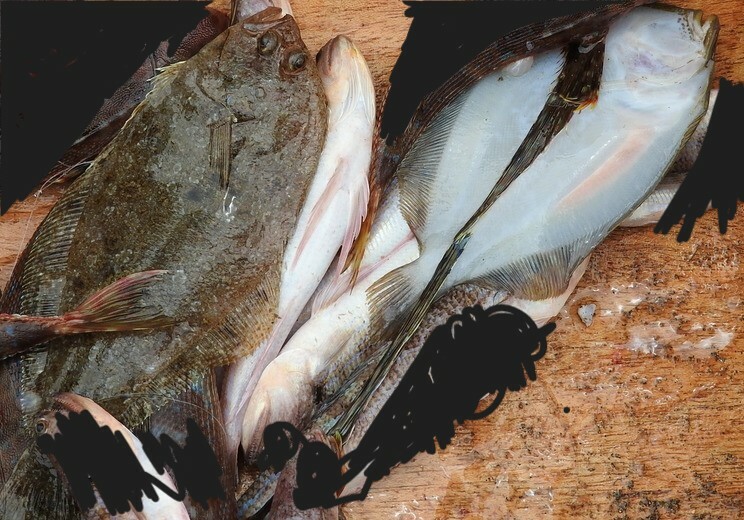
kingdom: Animalia
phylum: Chordata
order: Pleuronectiformes
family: Paralichthyidae
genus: Syacium
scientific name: Syacium guineense
